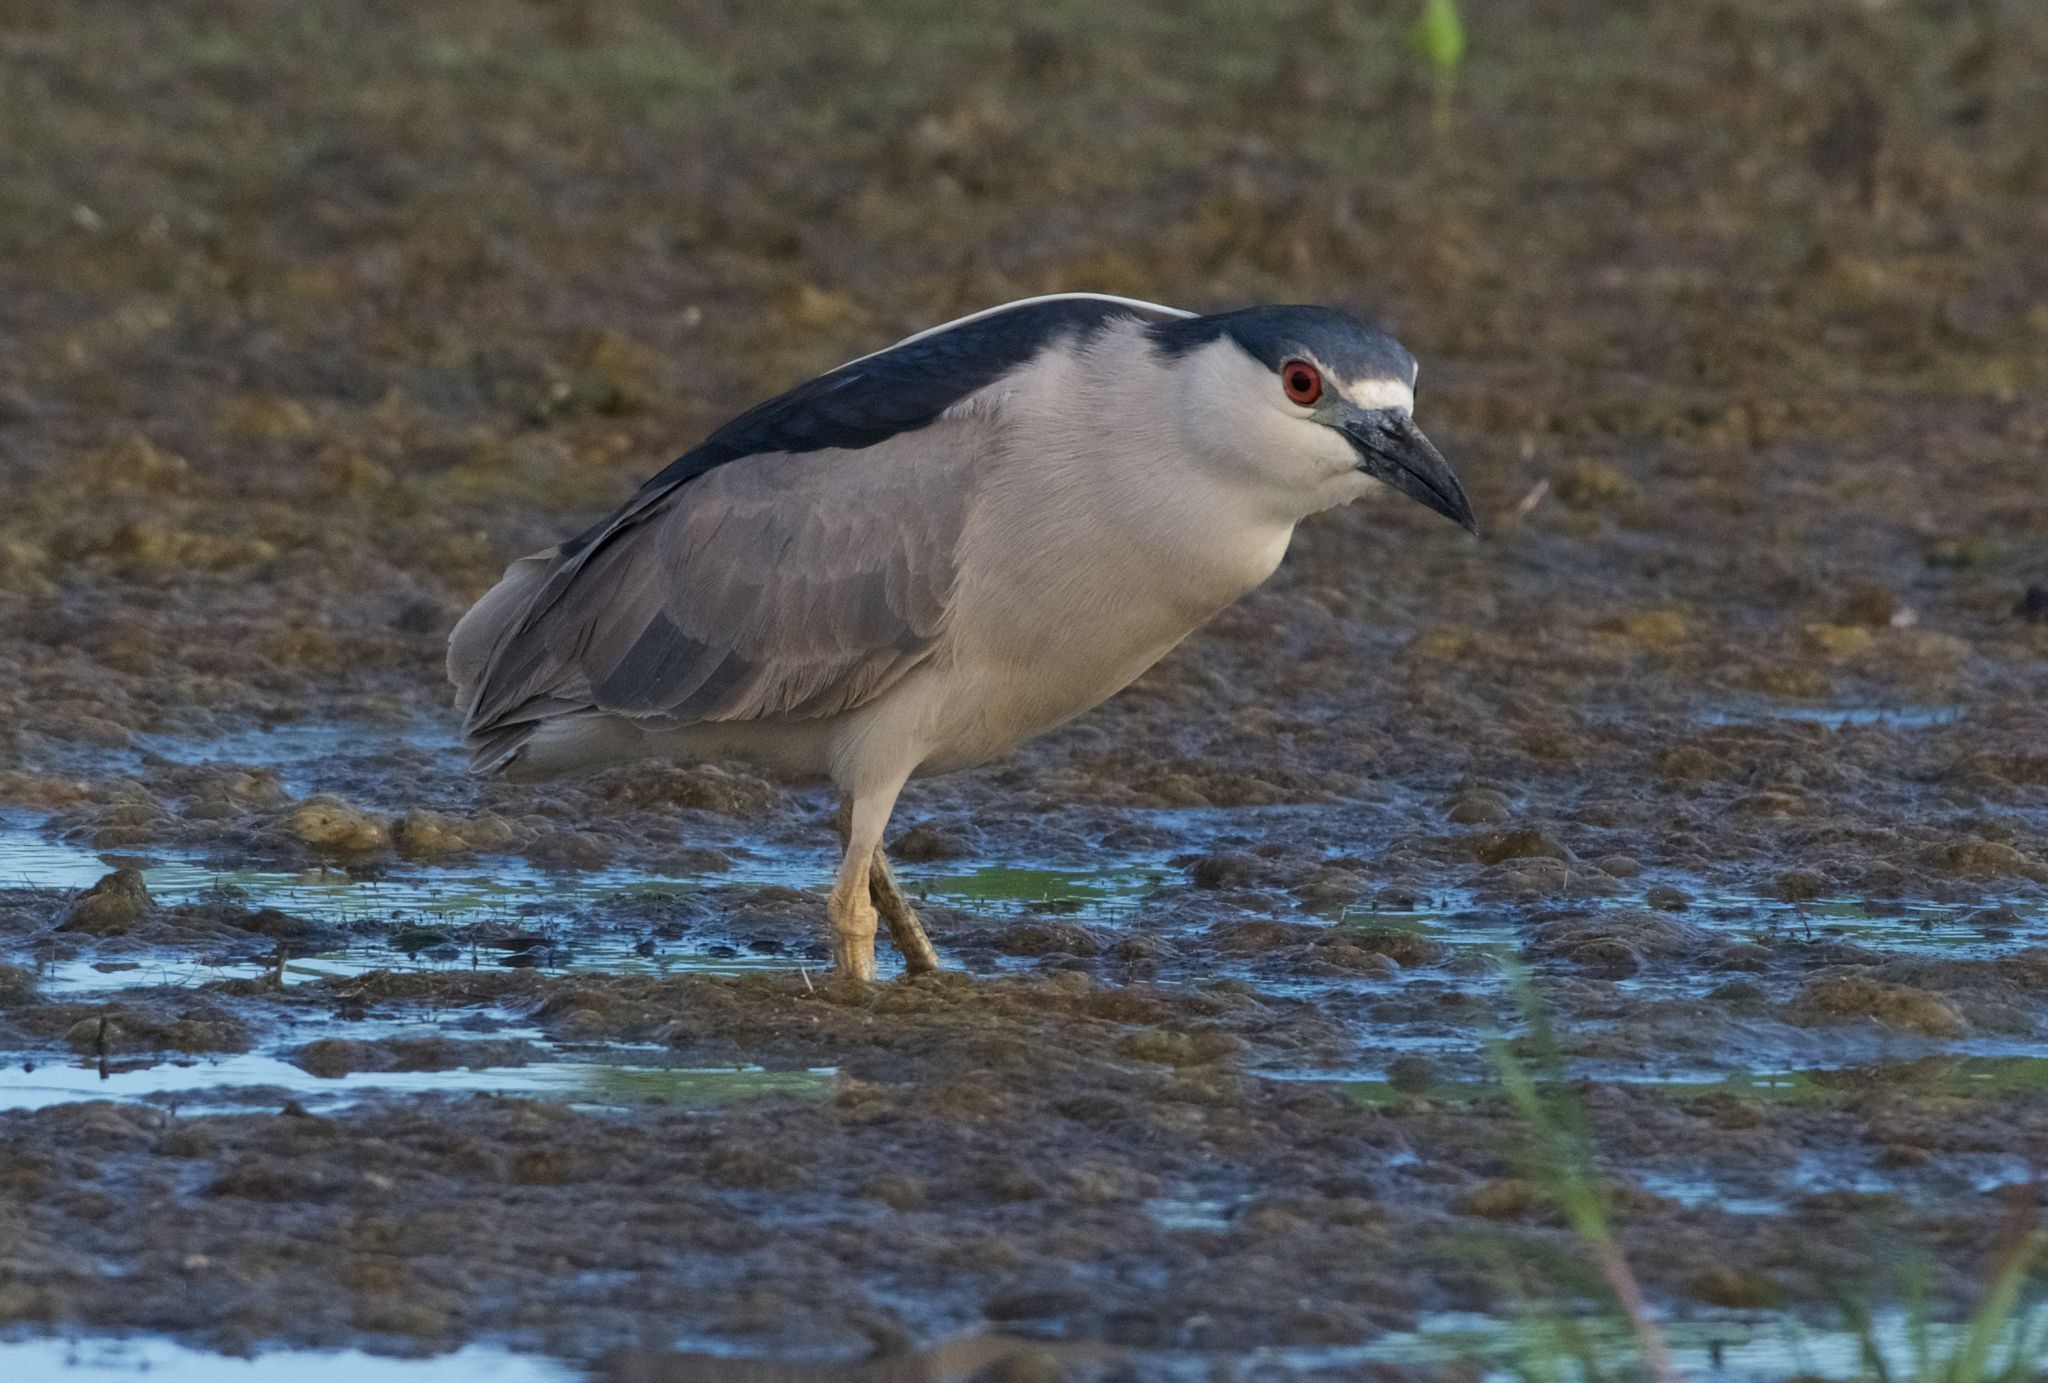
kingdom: Animalia
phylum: Chordata
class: Aves
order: Pelecaniformes
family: Ardeidae
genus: Nycticorax
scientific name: Nycticorax nycticorax
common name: Black-crowned night heron
